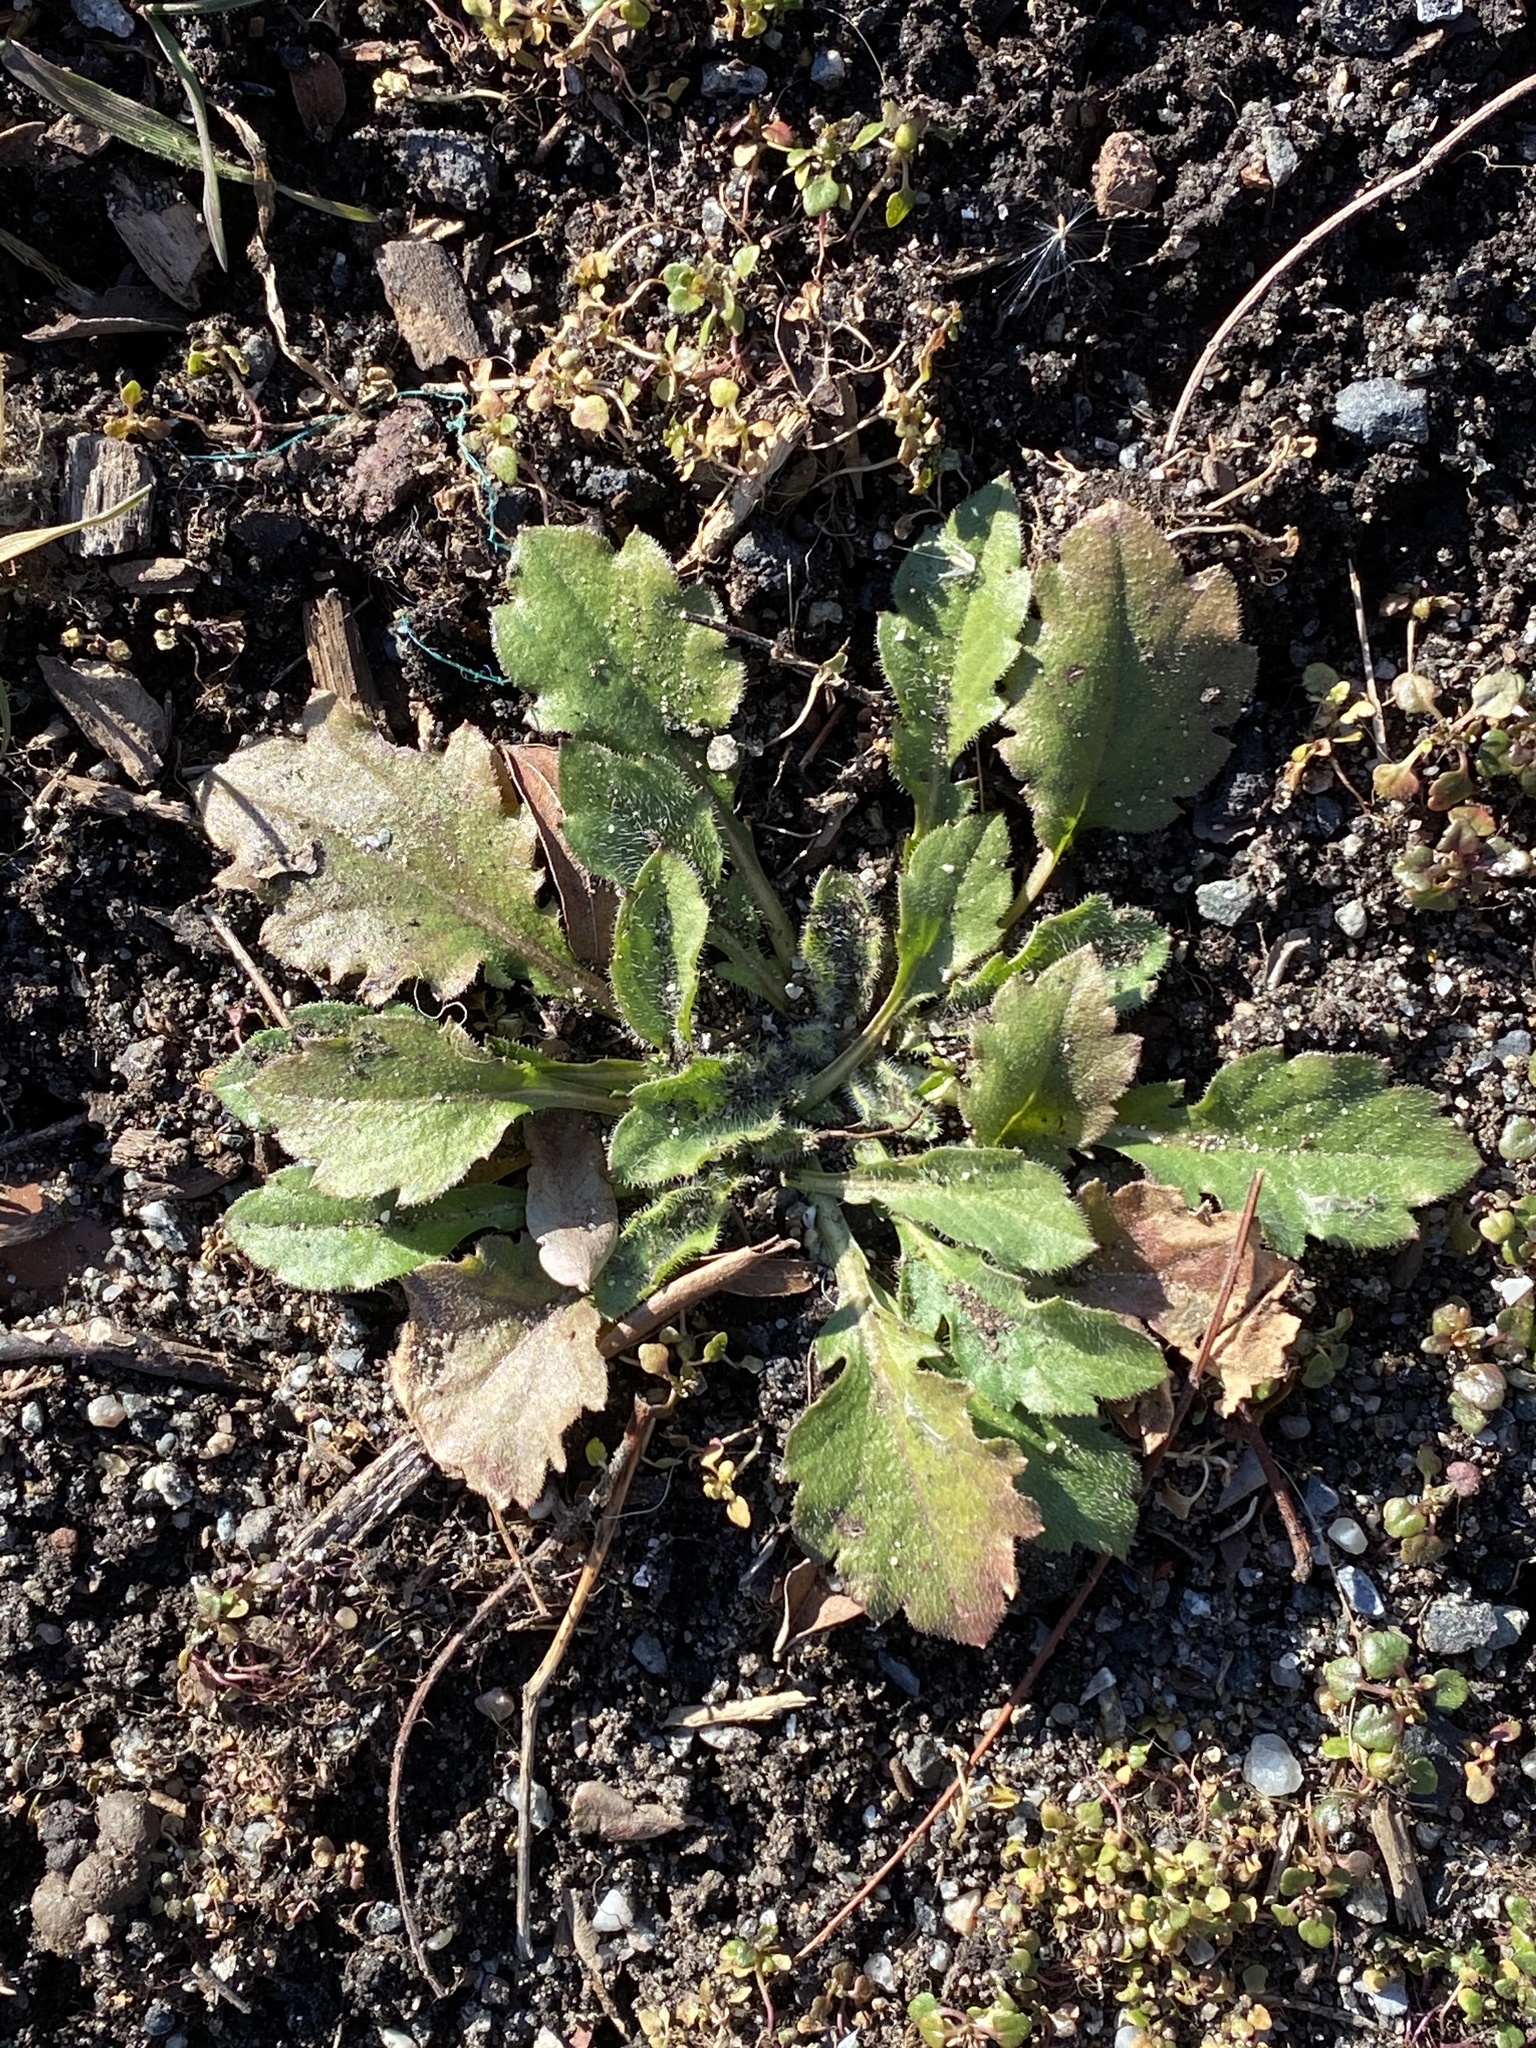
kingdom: Plantae
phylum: Tracheophyta
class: Magnoliopsida
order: Asterales
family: Asteraceae
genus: Erigeron
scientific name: Erigeron canadensis
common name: Canadian fleabane
